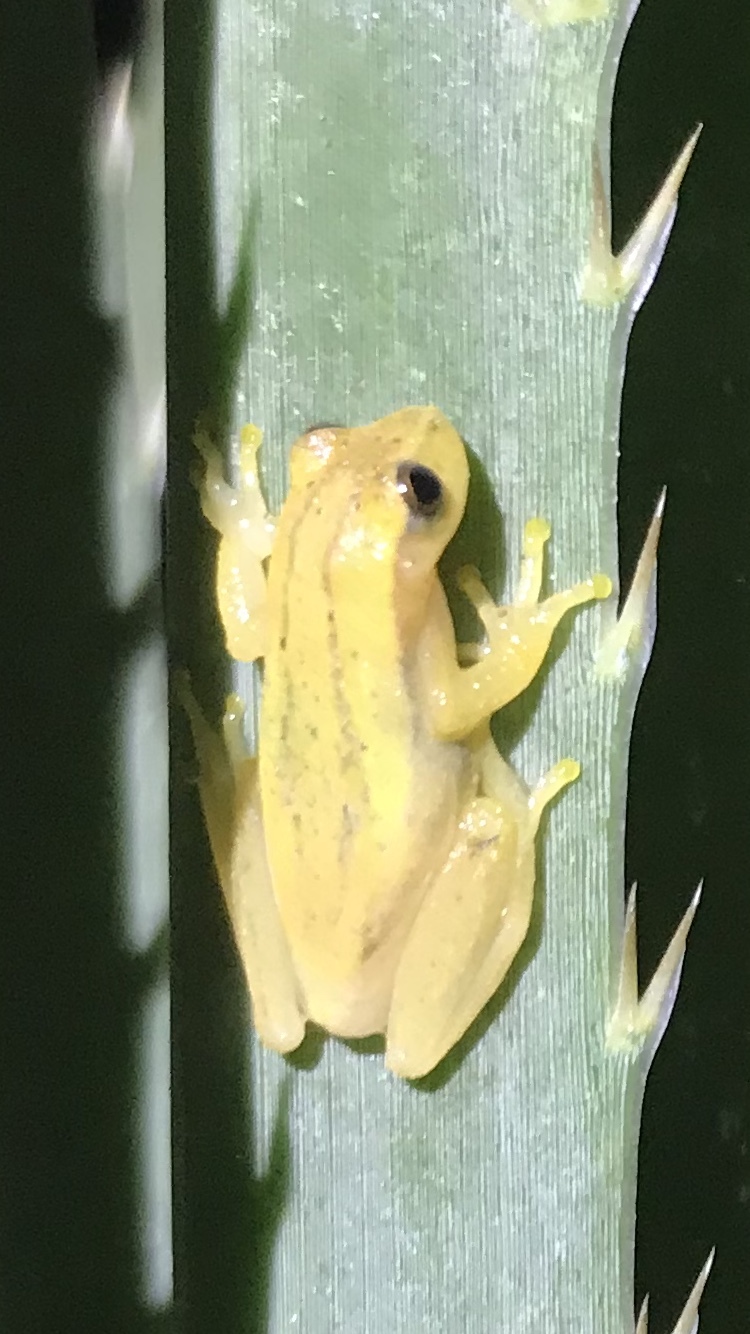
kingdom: Animalia
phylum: Chordata
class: Amphibia
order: Anura
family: Hylidae
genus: Dendropsophus
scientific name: Dendropsophus sanborni
